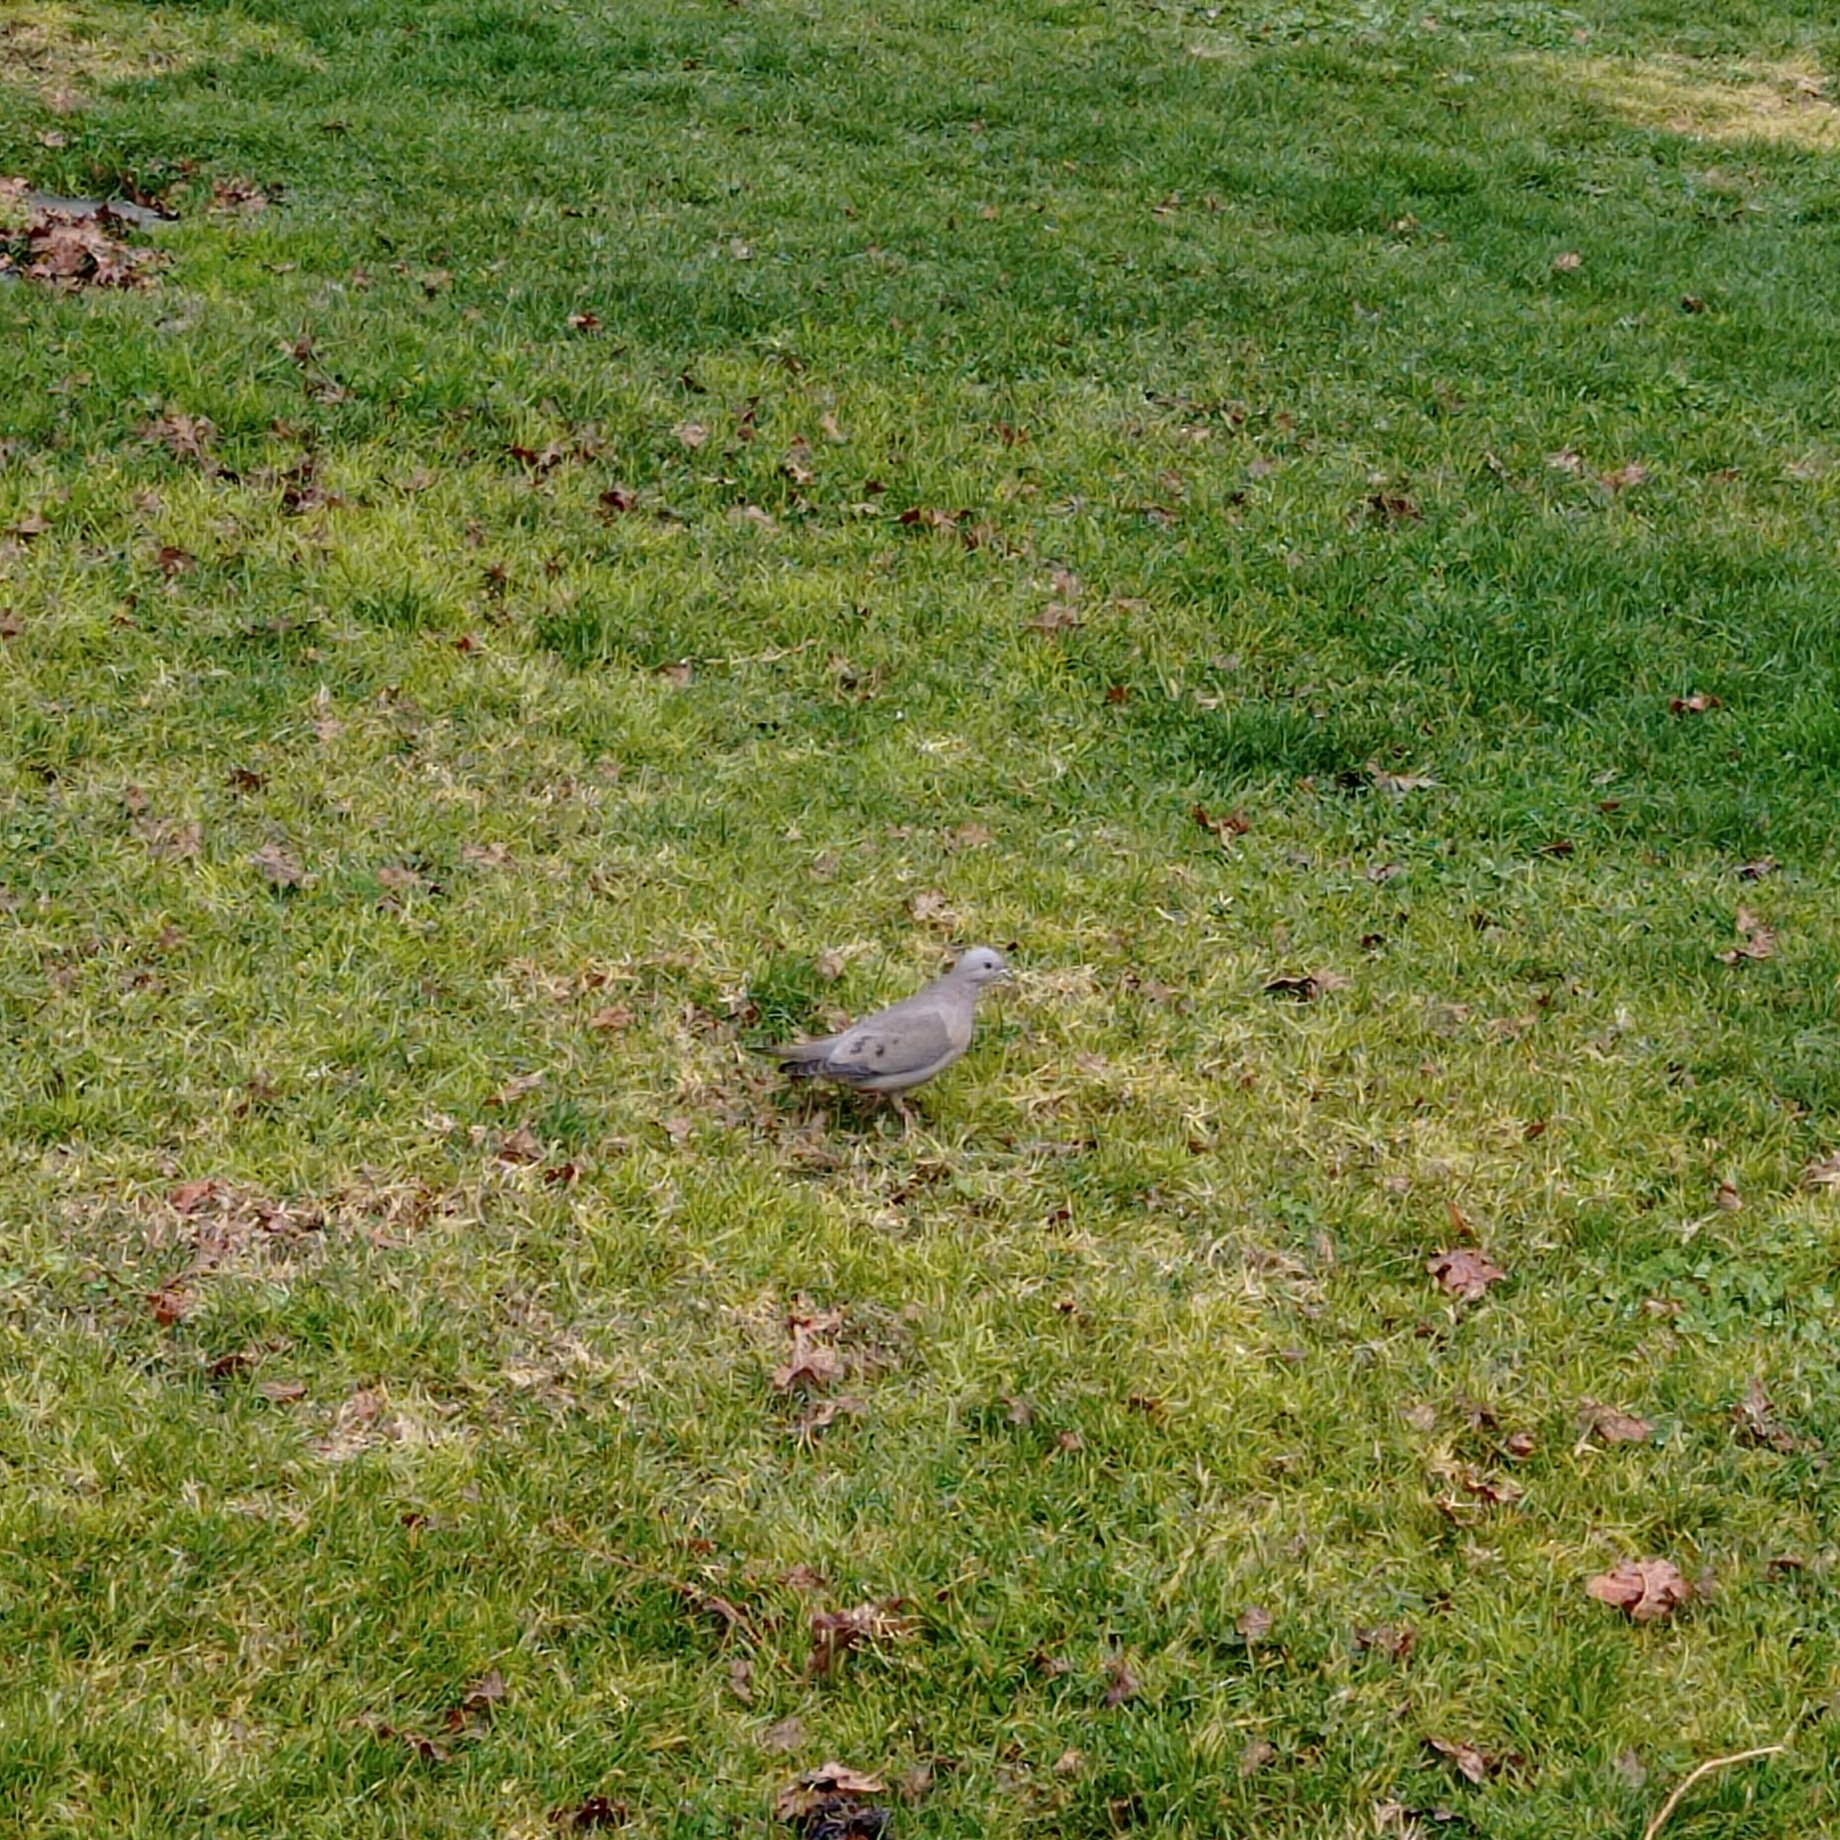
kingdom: Animalia
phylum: Chordata
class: Aves
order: Columbiformes
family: Columbidae
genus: Zenaida
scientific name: Zenaida auriculata
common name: Eared dove
